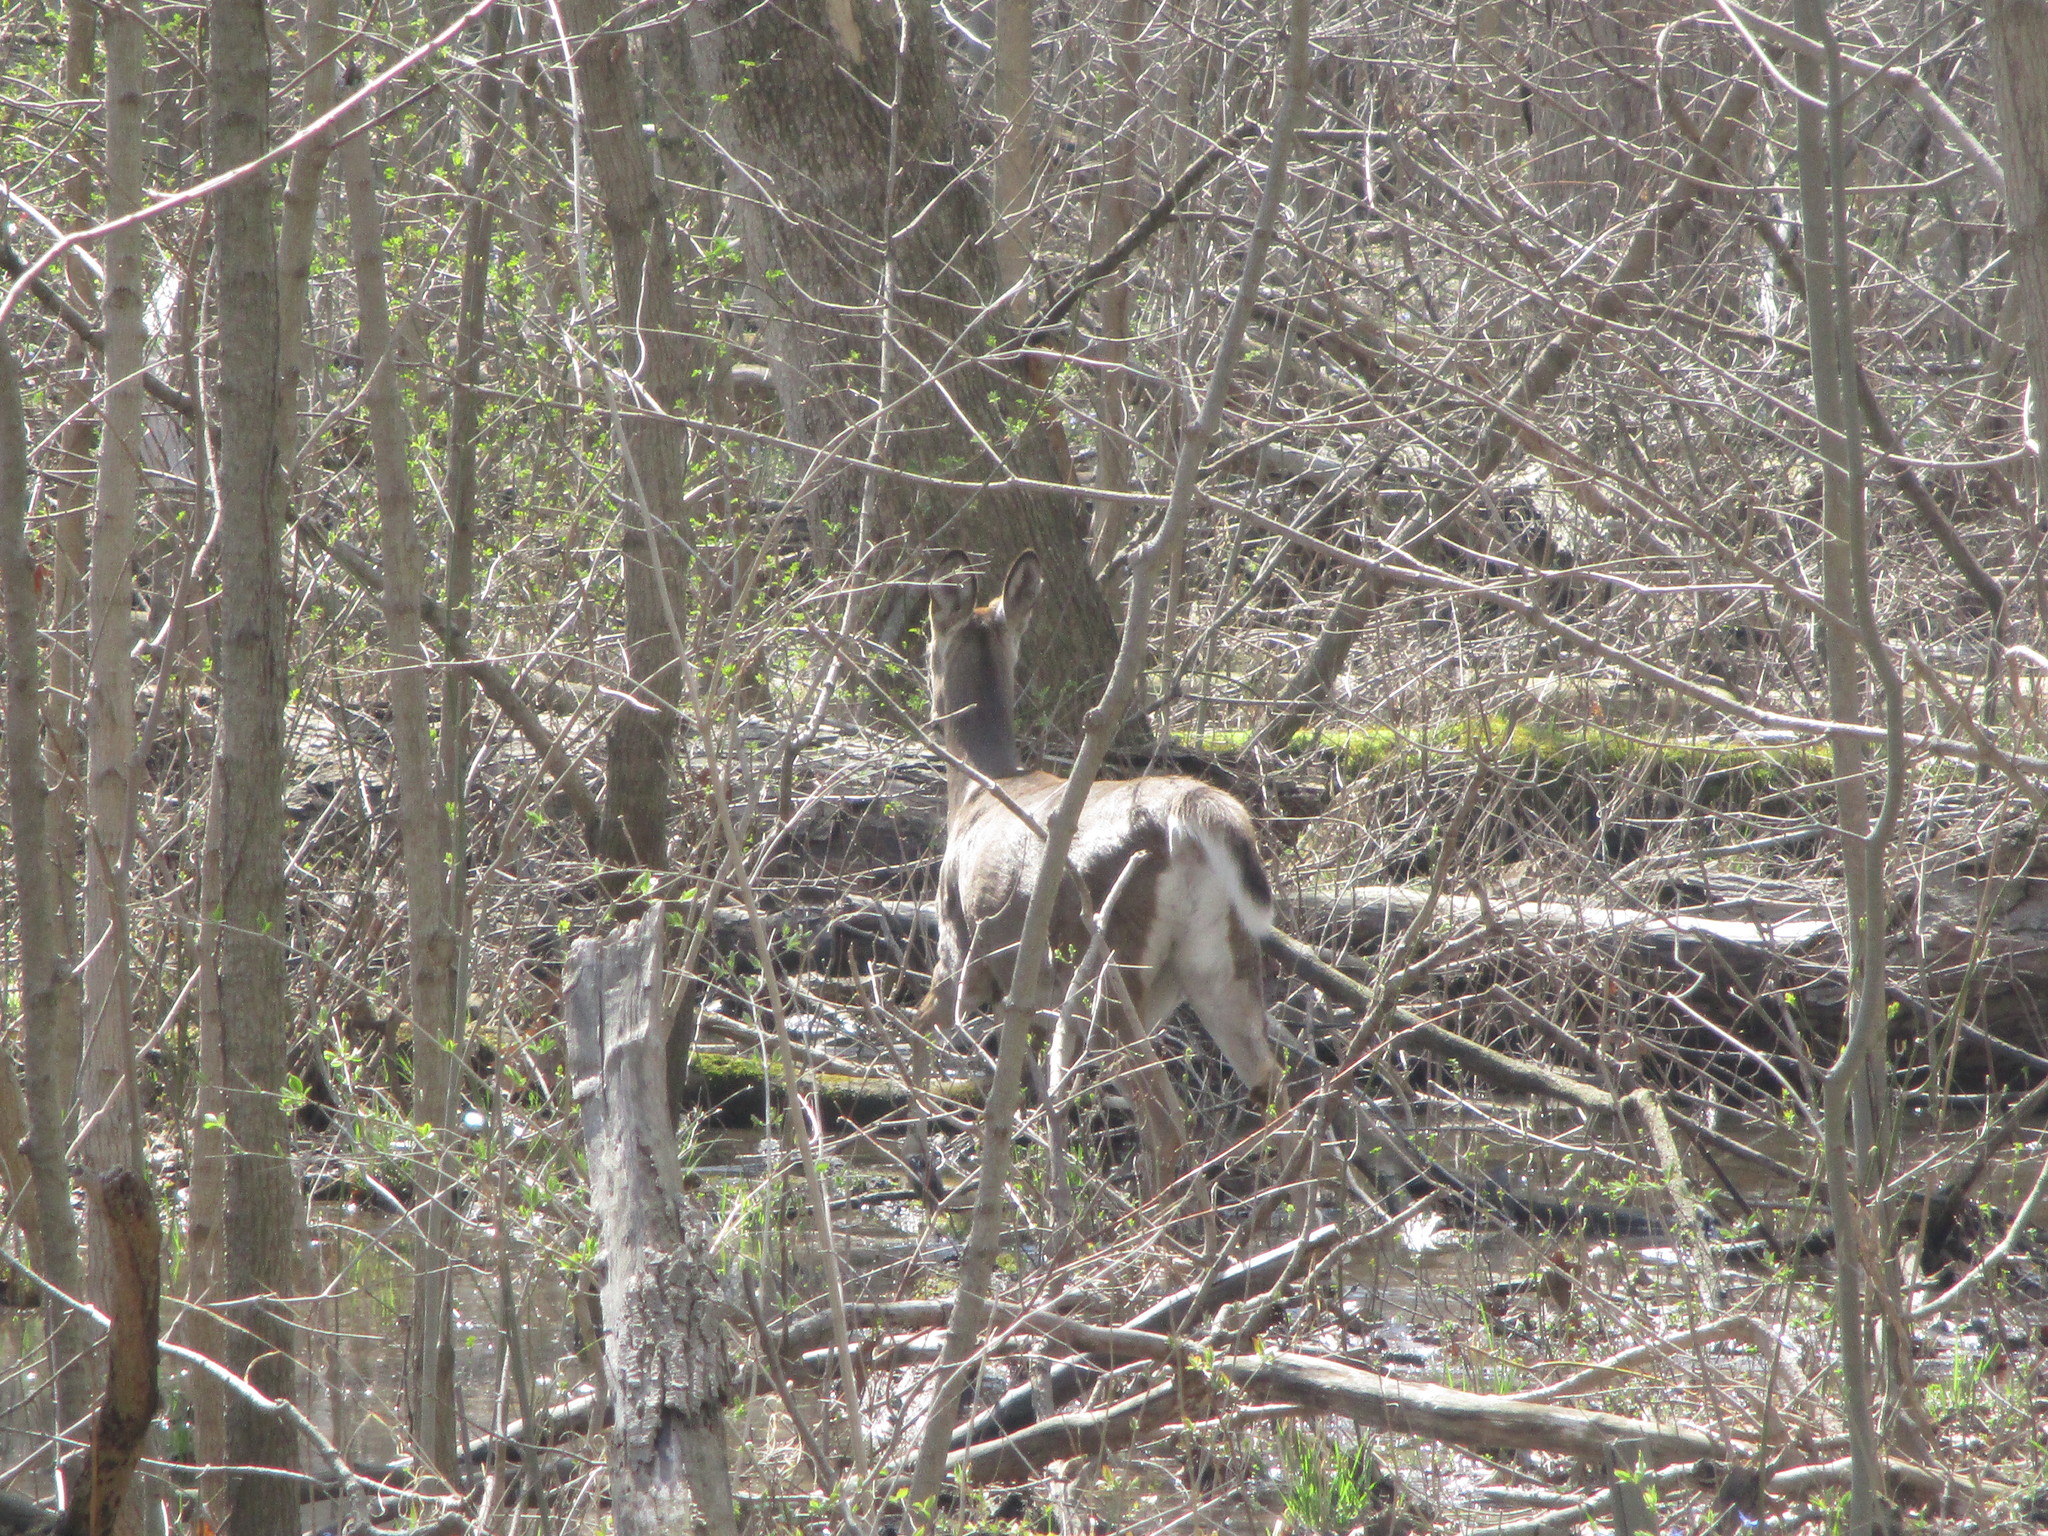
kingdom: Animalia
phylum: Chordata
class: Mammalia
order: Artiodactyla
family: Cervidae
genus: Odocoileus
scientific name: Odocoileus virginianus
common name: White-tailed deer
